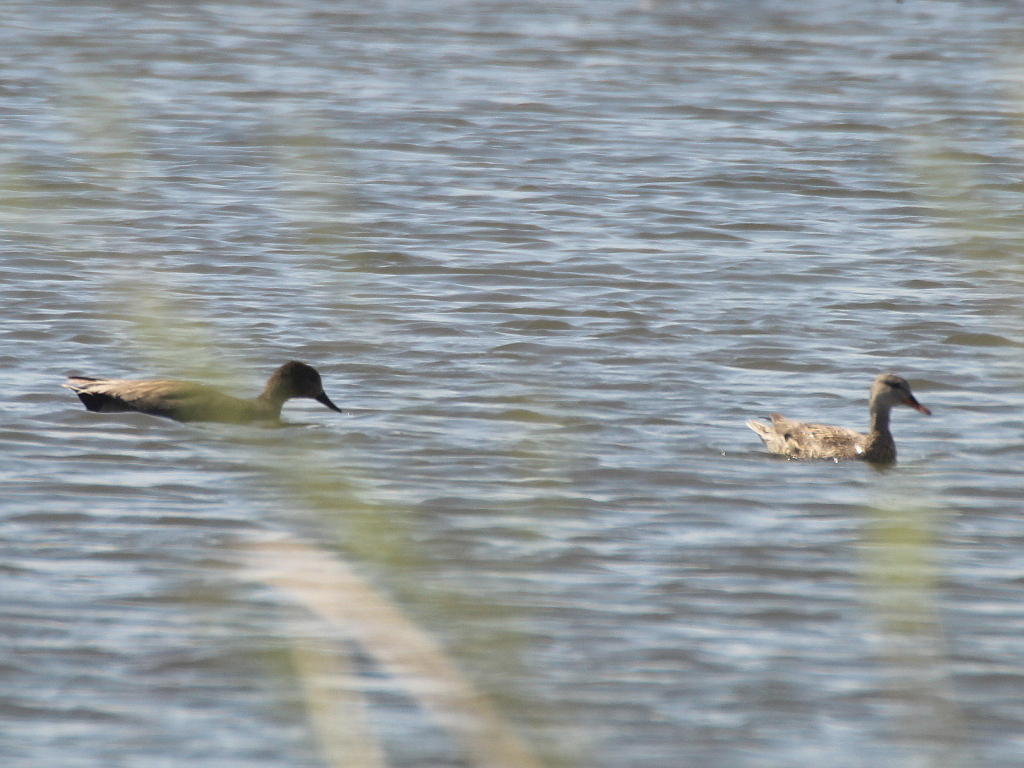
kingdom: Animalia
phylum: Chordata
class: Aves
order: Anseriformes
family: Anatidae
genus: Mareca
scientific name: Mareca strepera
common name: Gadwall
